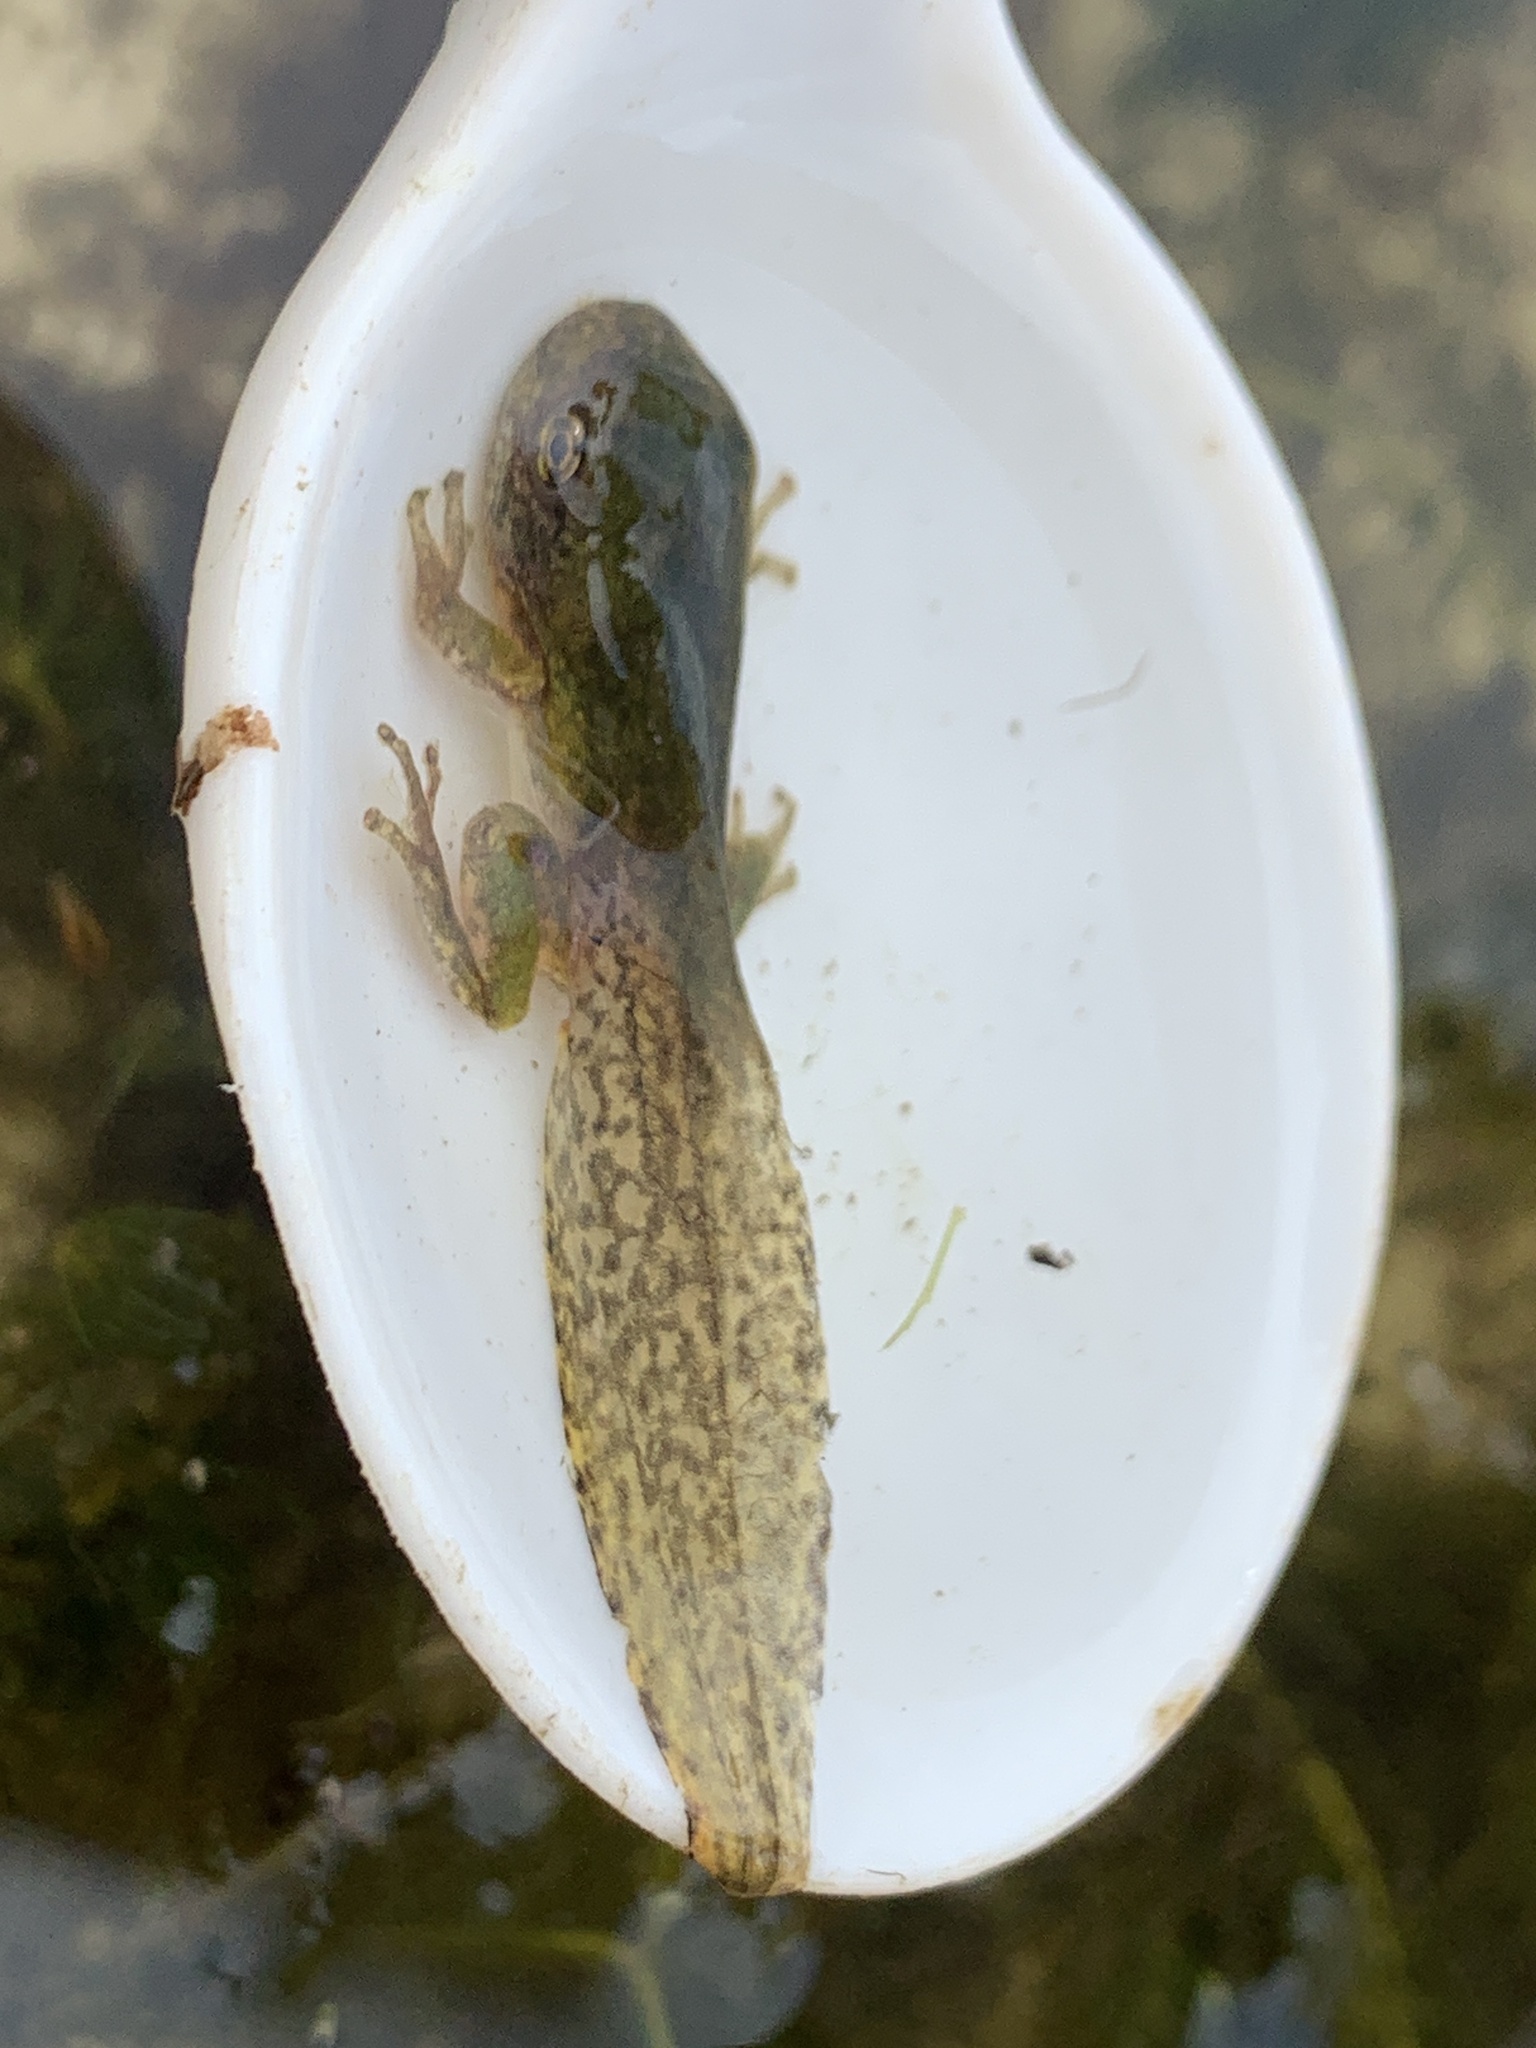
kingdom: Animalia
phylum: Chordata
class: Amphibia
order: Anura
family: Hylidae
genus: Hyla
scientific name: Hyla
